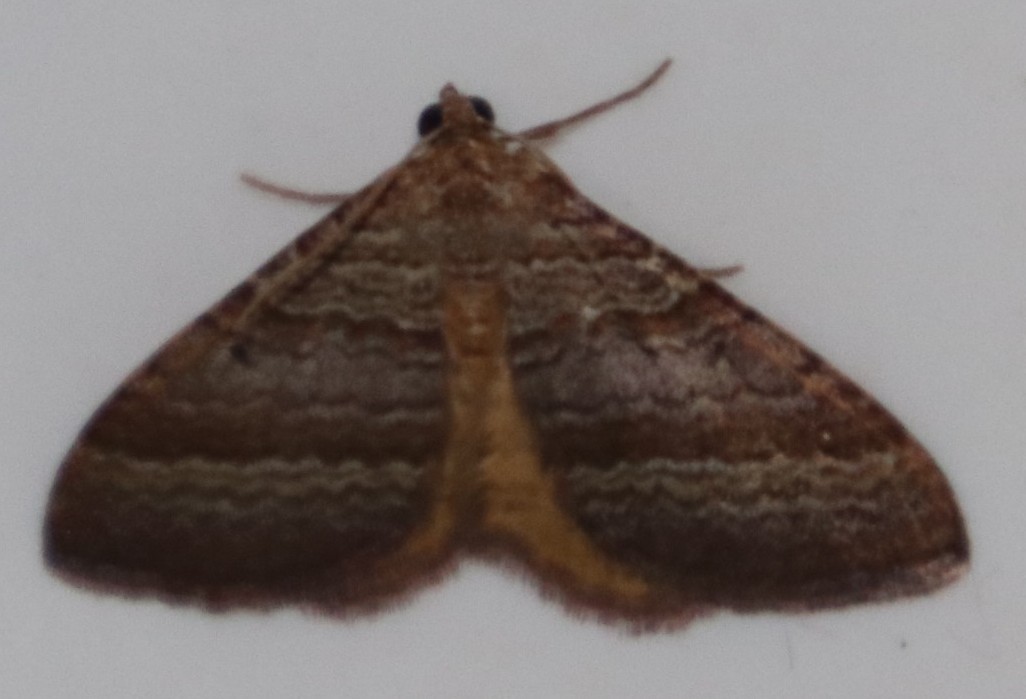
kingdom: Animalia
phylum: Arthropoda
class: Insecta
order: Lepidoptera
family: Geometridae
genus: Mimoclystia
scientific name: Mimoclystia pudicata
